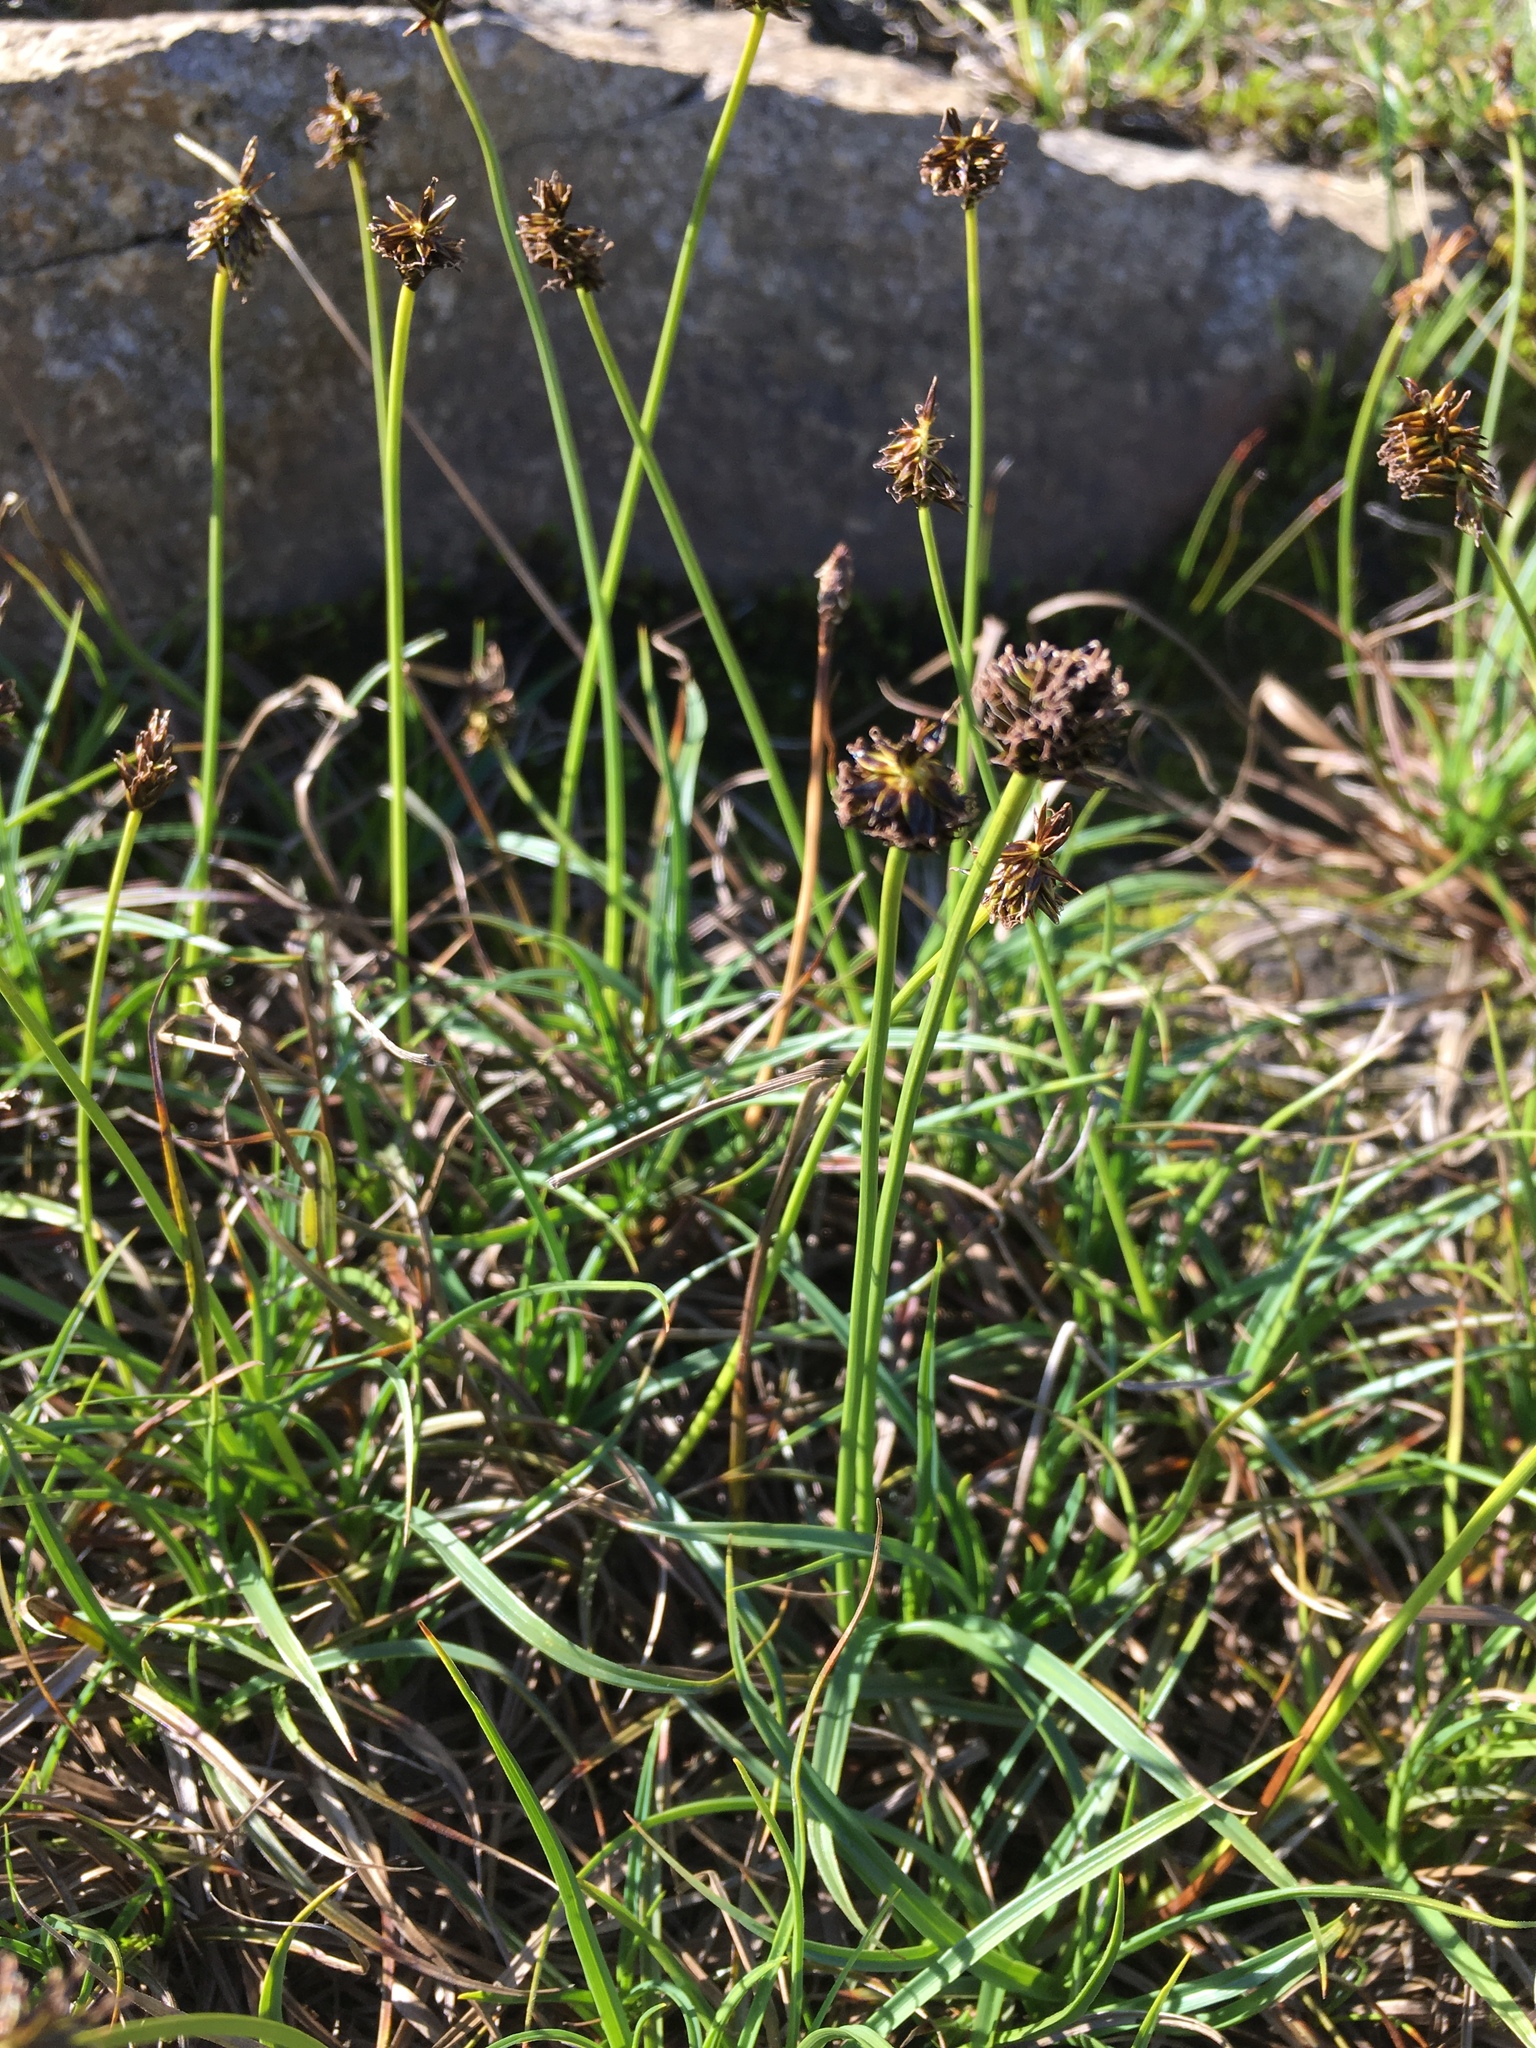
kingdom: Plantae
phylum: Tracheophyta
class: Liliopsida
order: Poales
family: Cyperaceae
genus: Carex
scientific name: Carex nigricans
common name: Black alpine sedge
